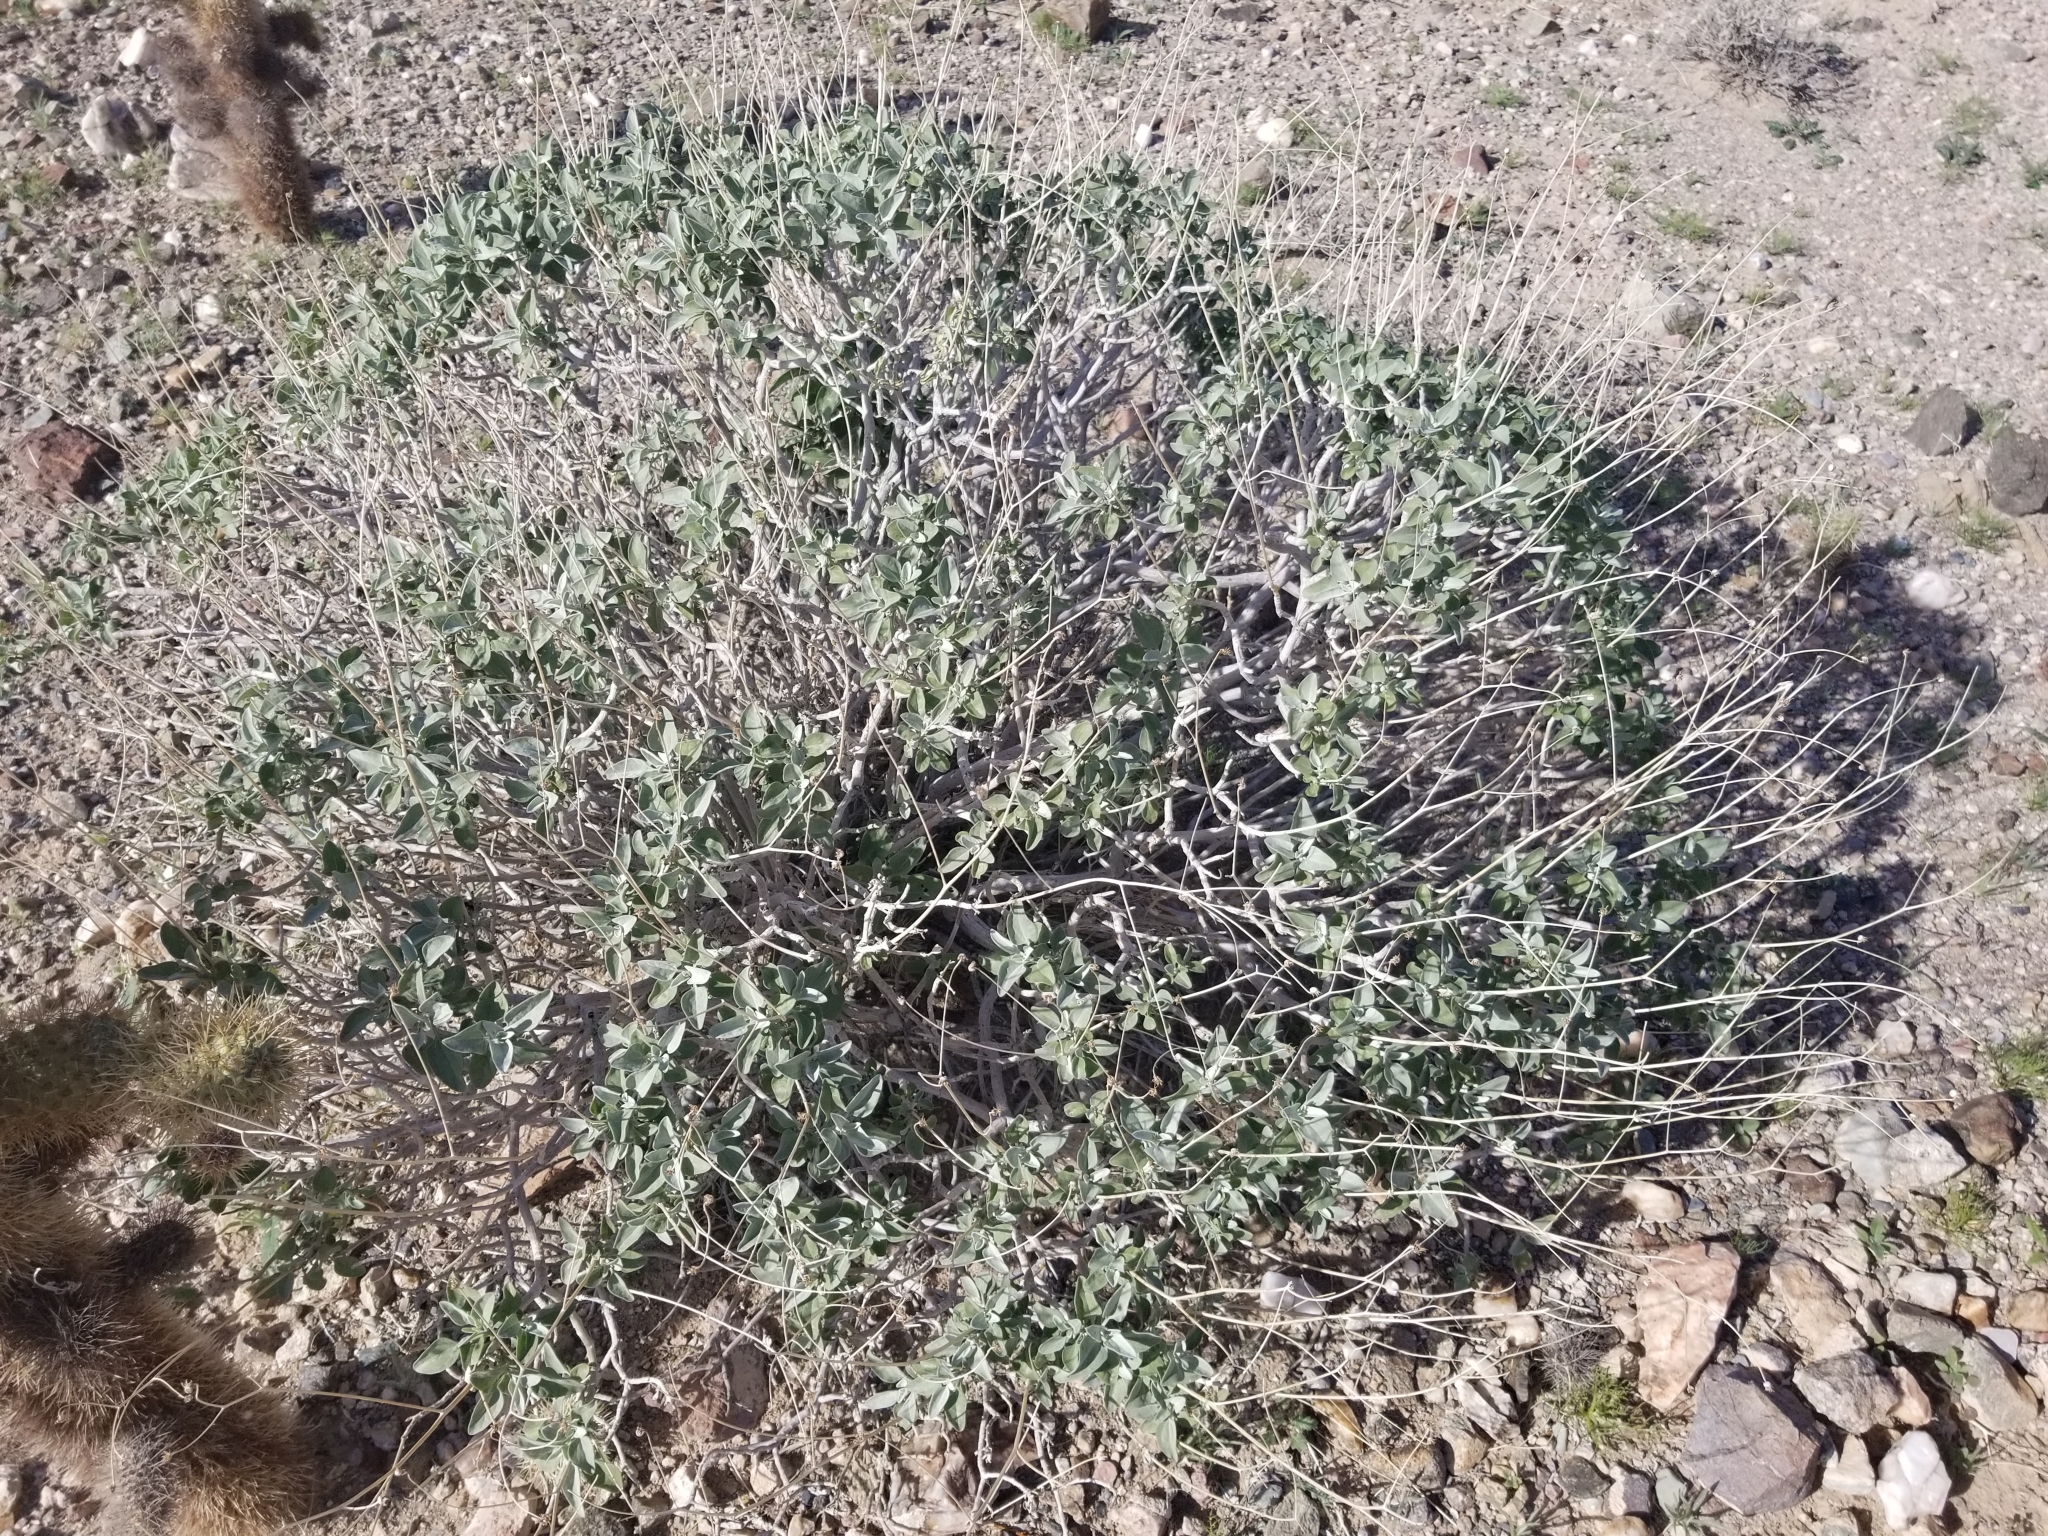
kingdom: Plantae
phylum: Tracheophyta
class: Magnoliopsida
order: Asterales
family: Asteraceae
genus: Encelia
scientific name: Encelia farinosa
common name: Brittlebush
